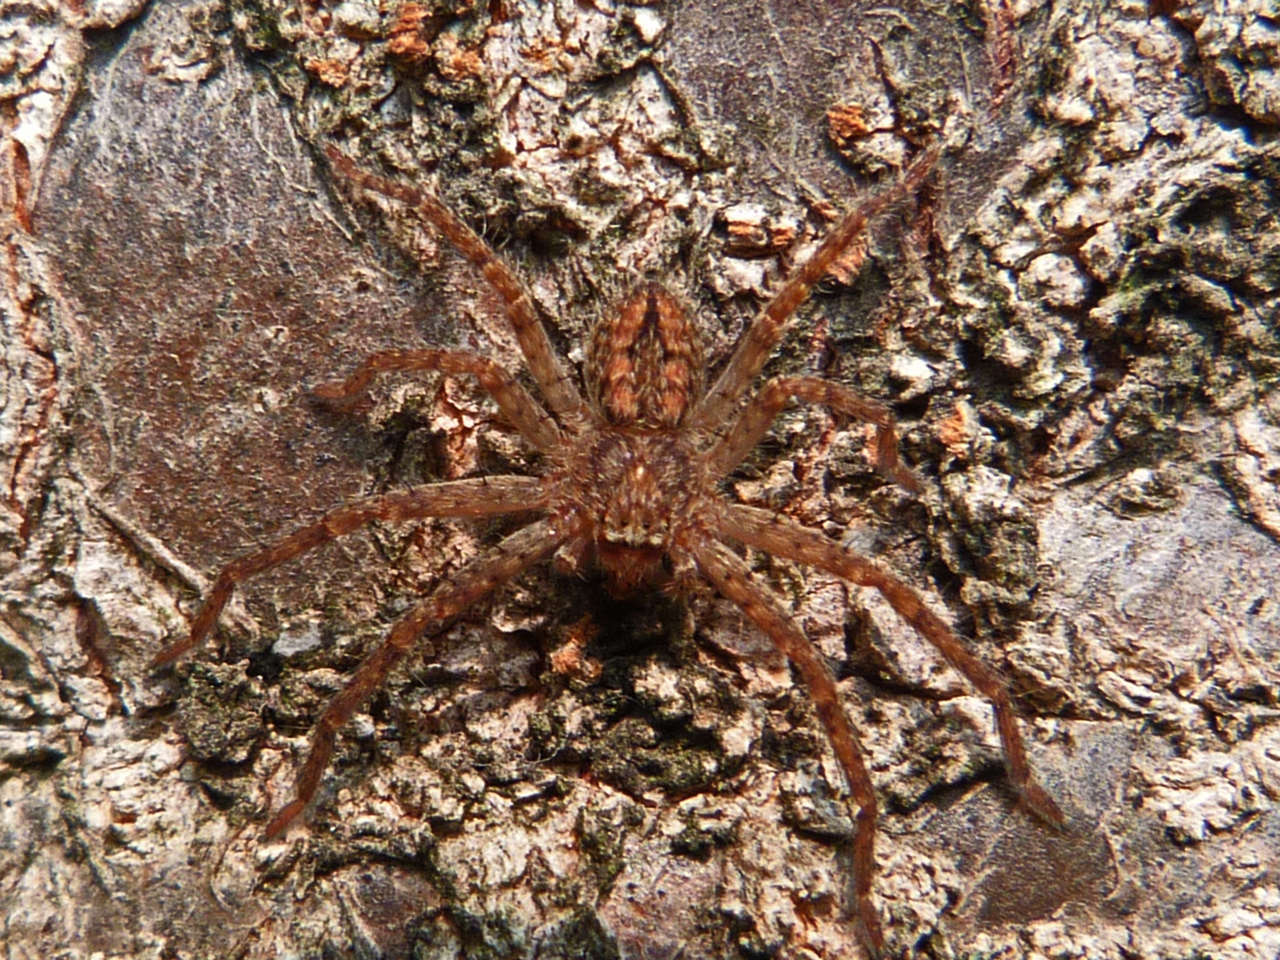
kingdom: Animalia
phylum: Arthropoda
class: Arachnida
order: Araneae
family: Sparassidae
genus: Isopedella
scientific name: Isopedella victorialis
